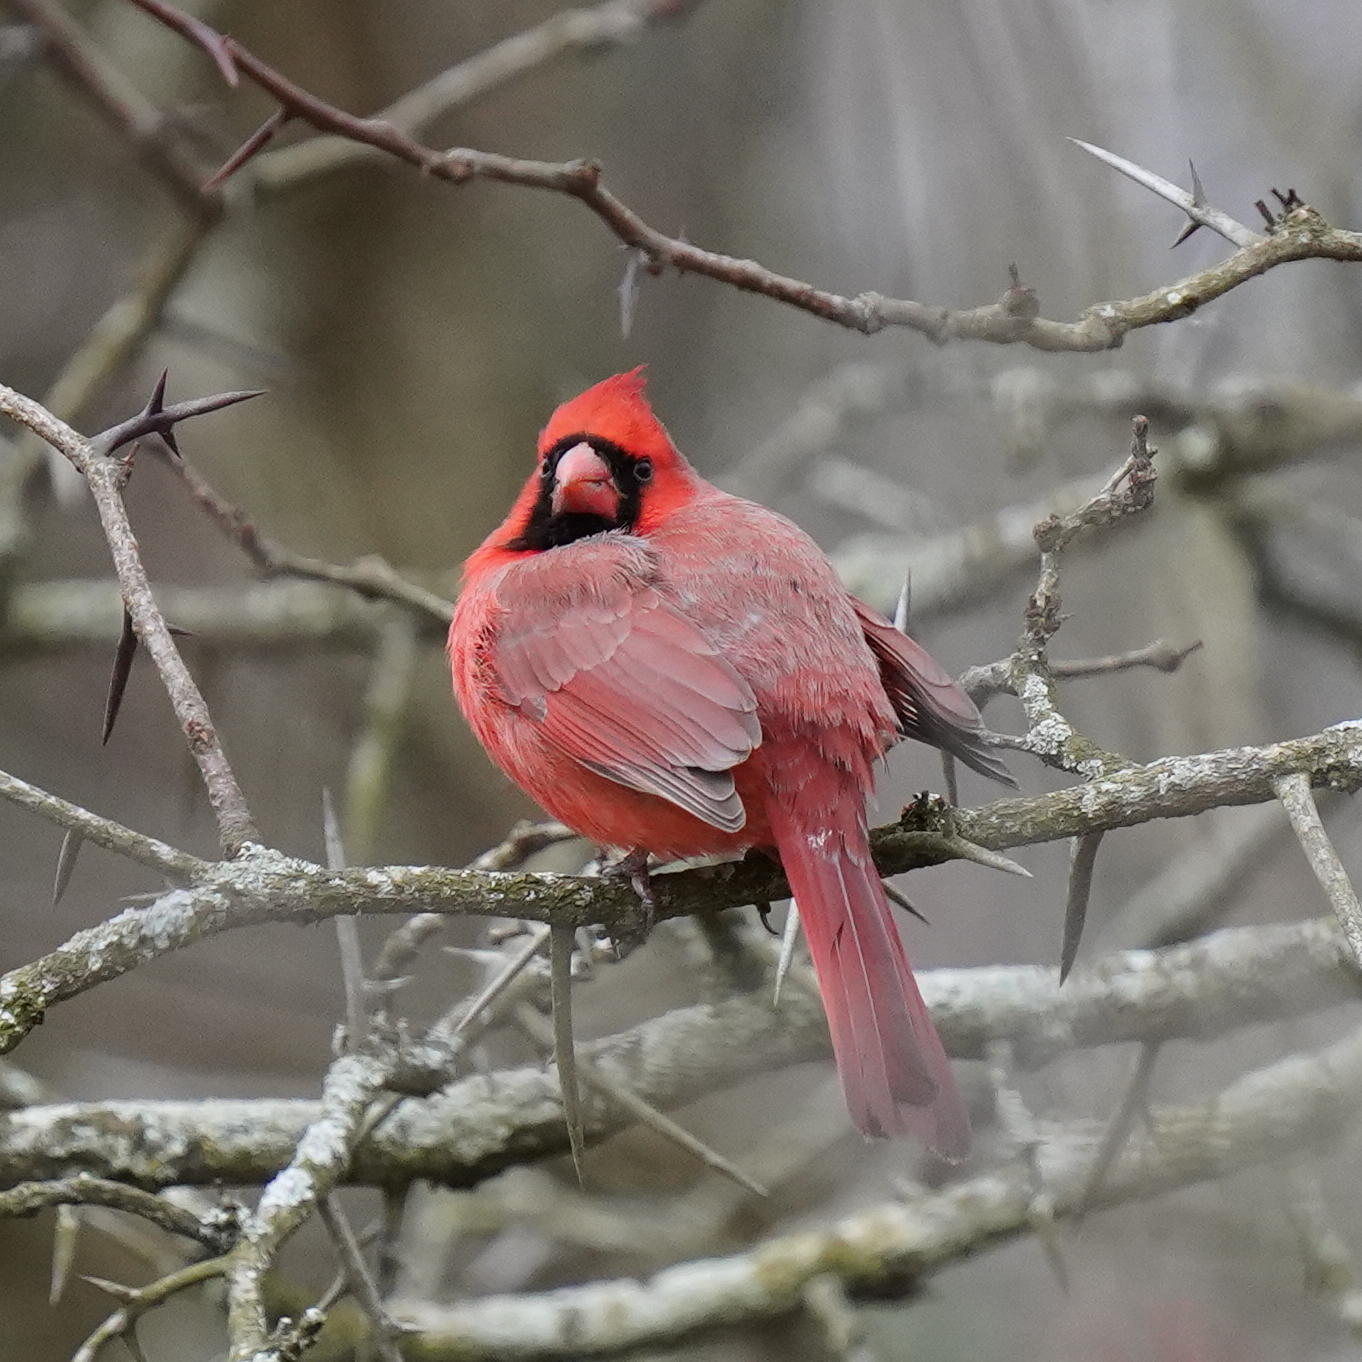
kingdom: Animalia
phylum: Chordata
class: Aves
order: Passeriformes
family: Cardinalidae
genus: Cardinalis
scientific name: Cardinalis cardinalis
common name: Northern cardinal
